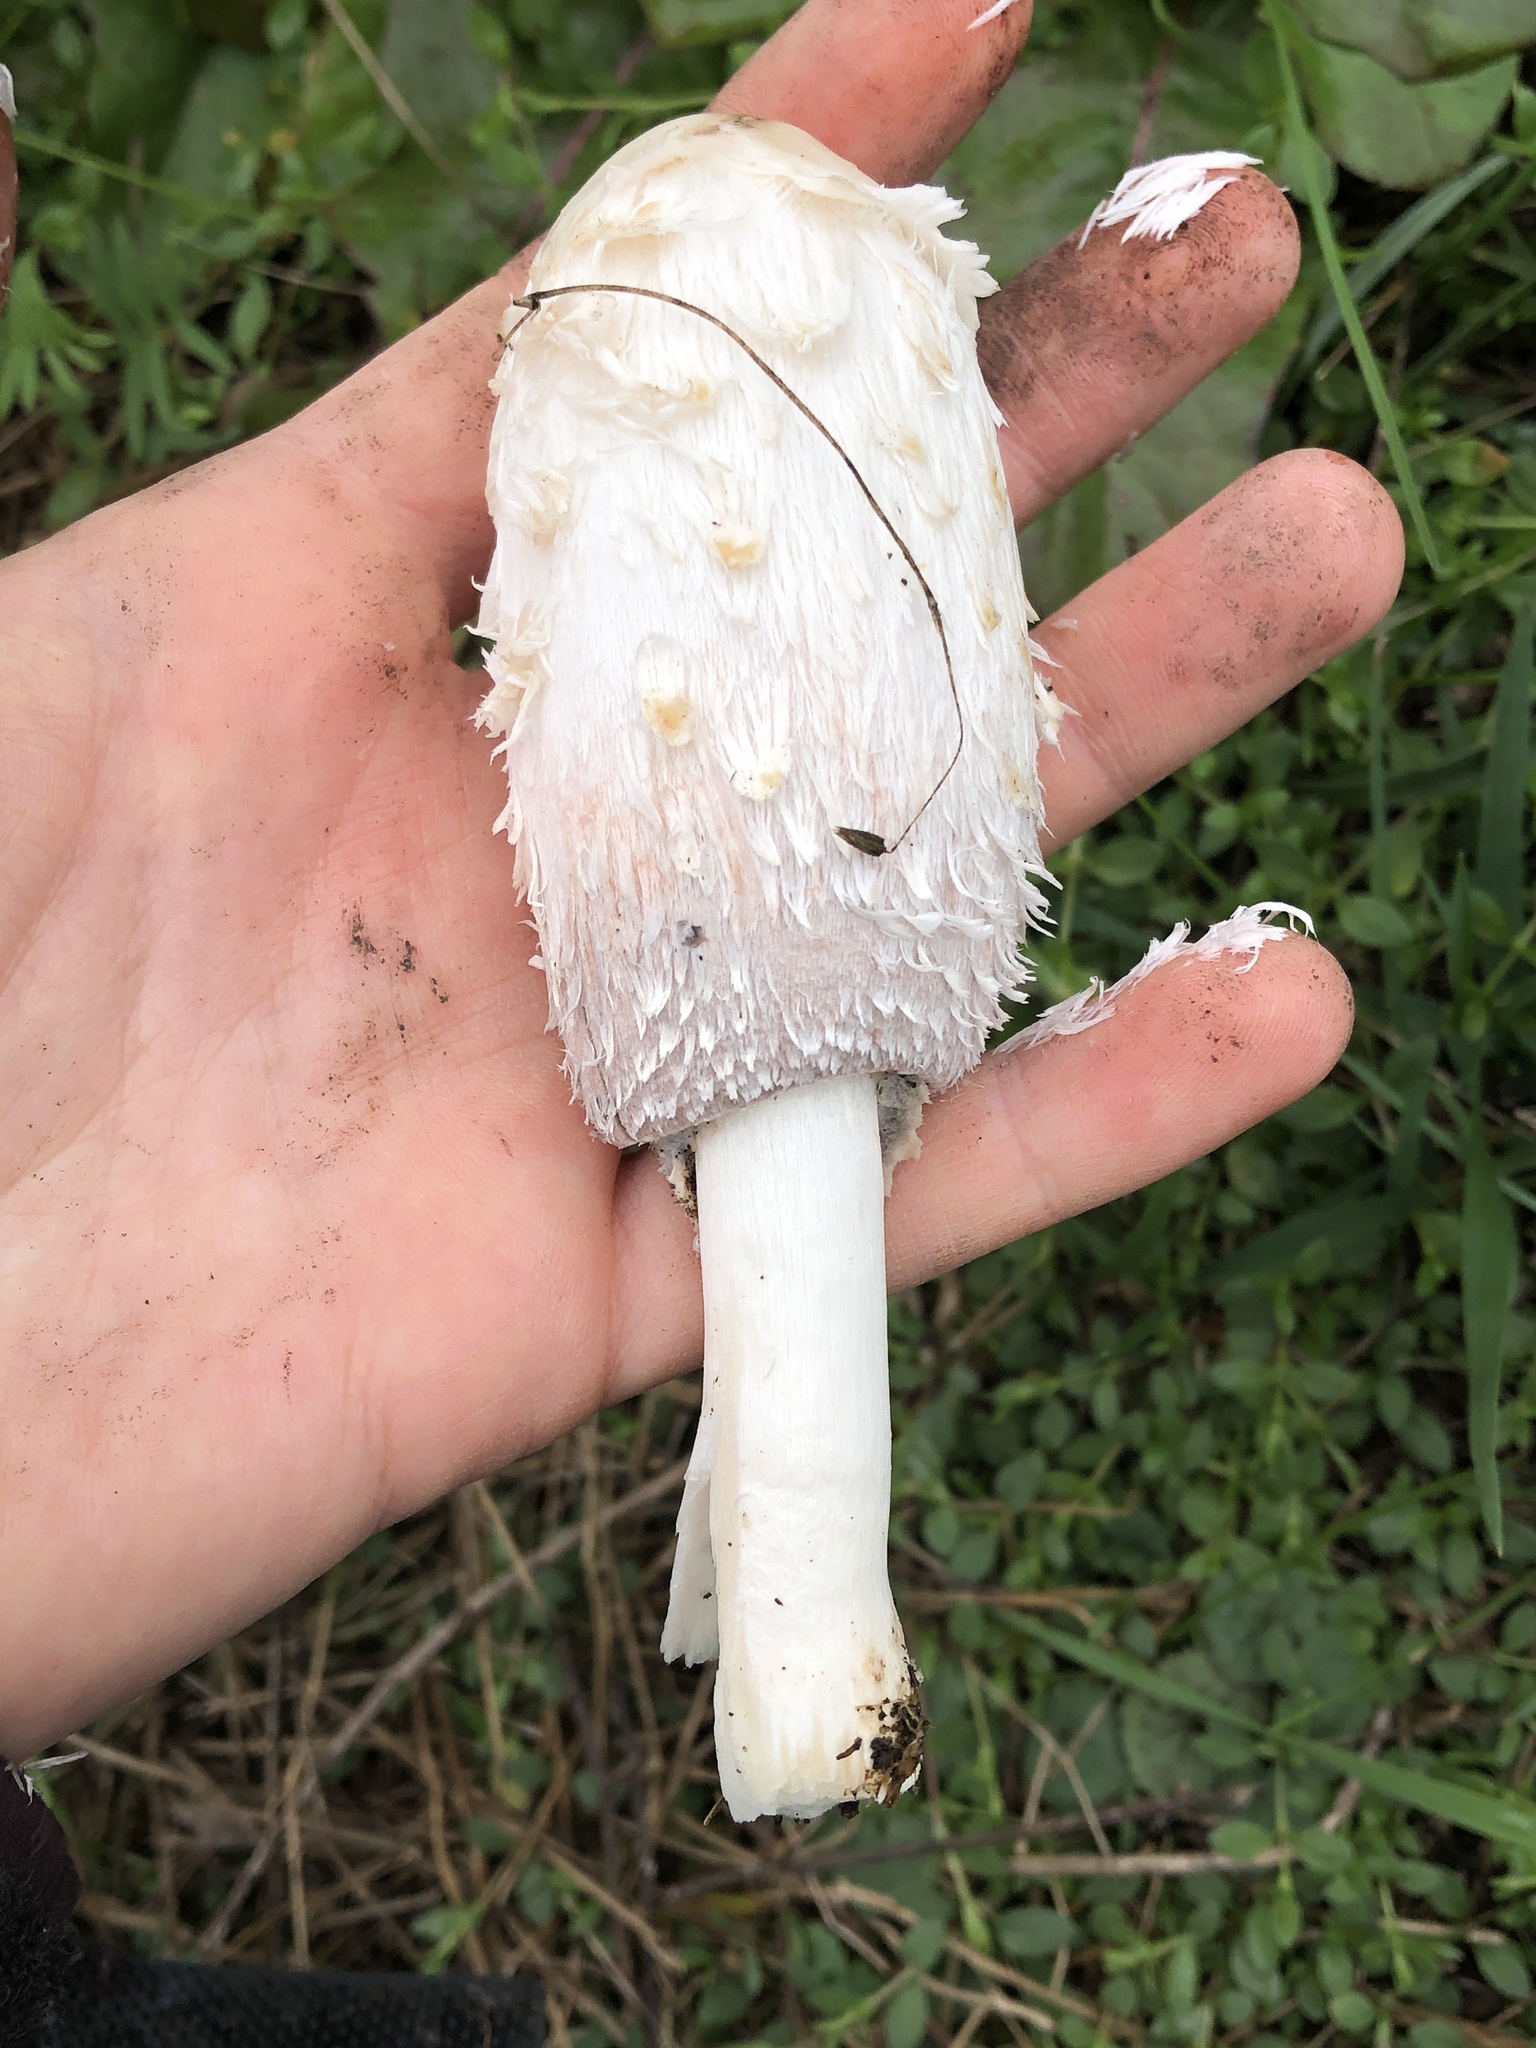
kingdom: Fungi
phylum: Basidiomycota
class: Agaricomycetes
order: Agaricales
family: Agaricaceae
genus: Coprinus
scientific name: Coprinus comatus
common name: Lawyer's wig
